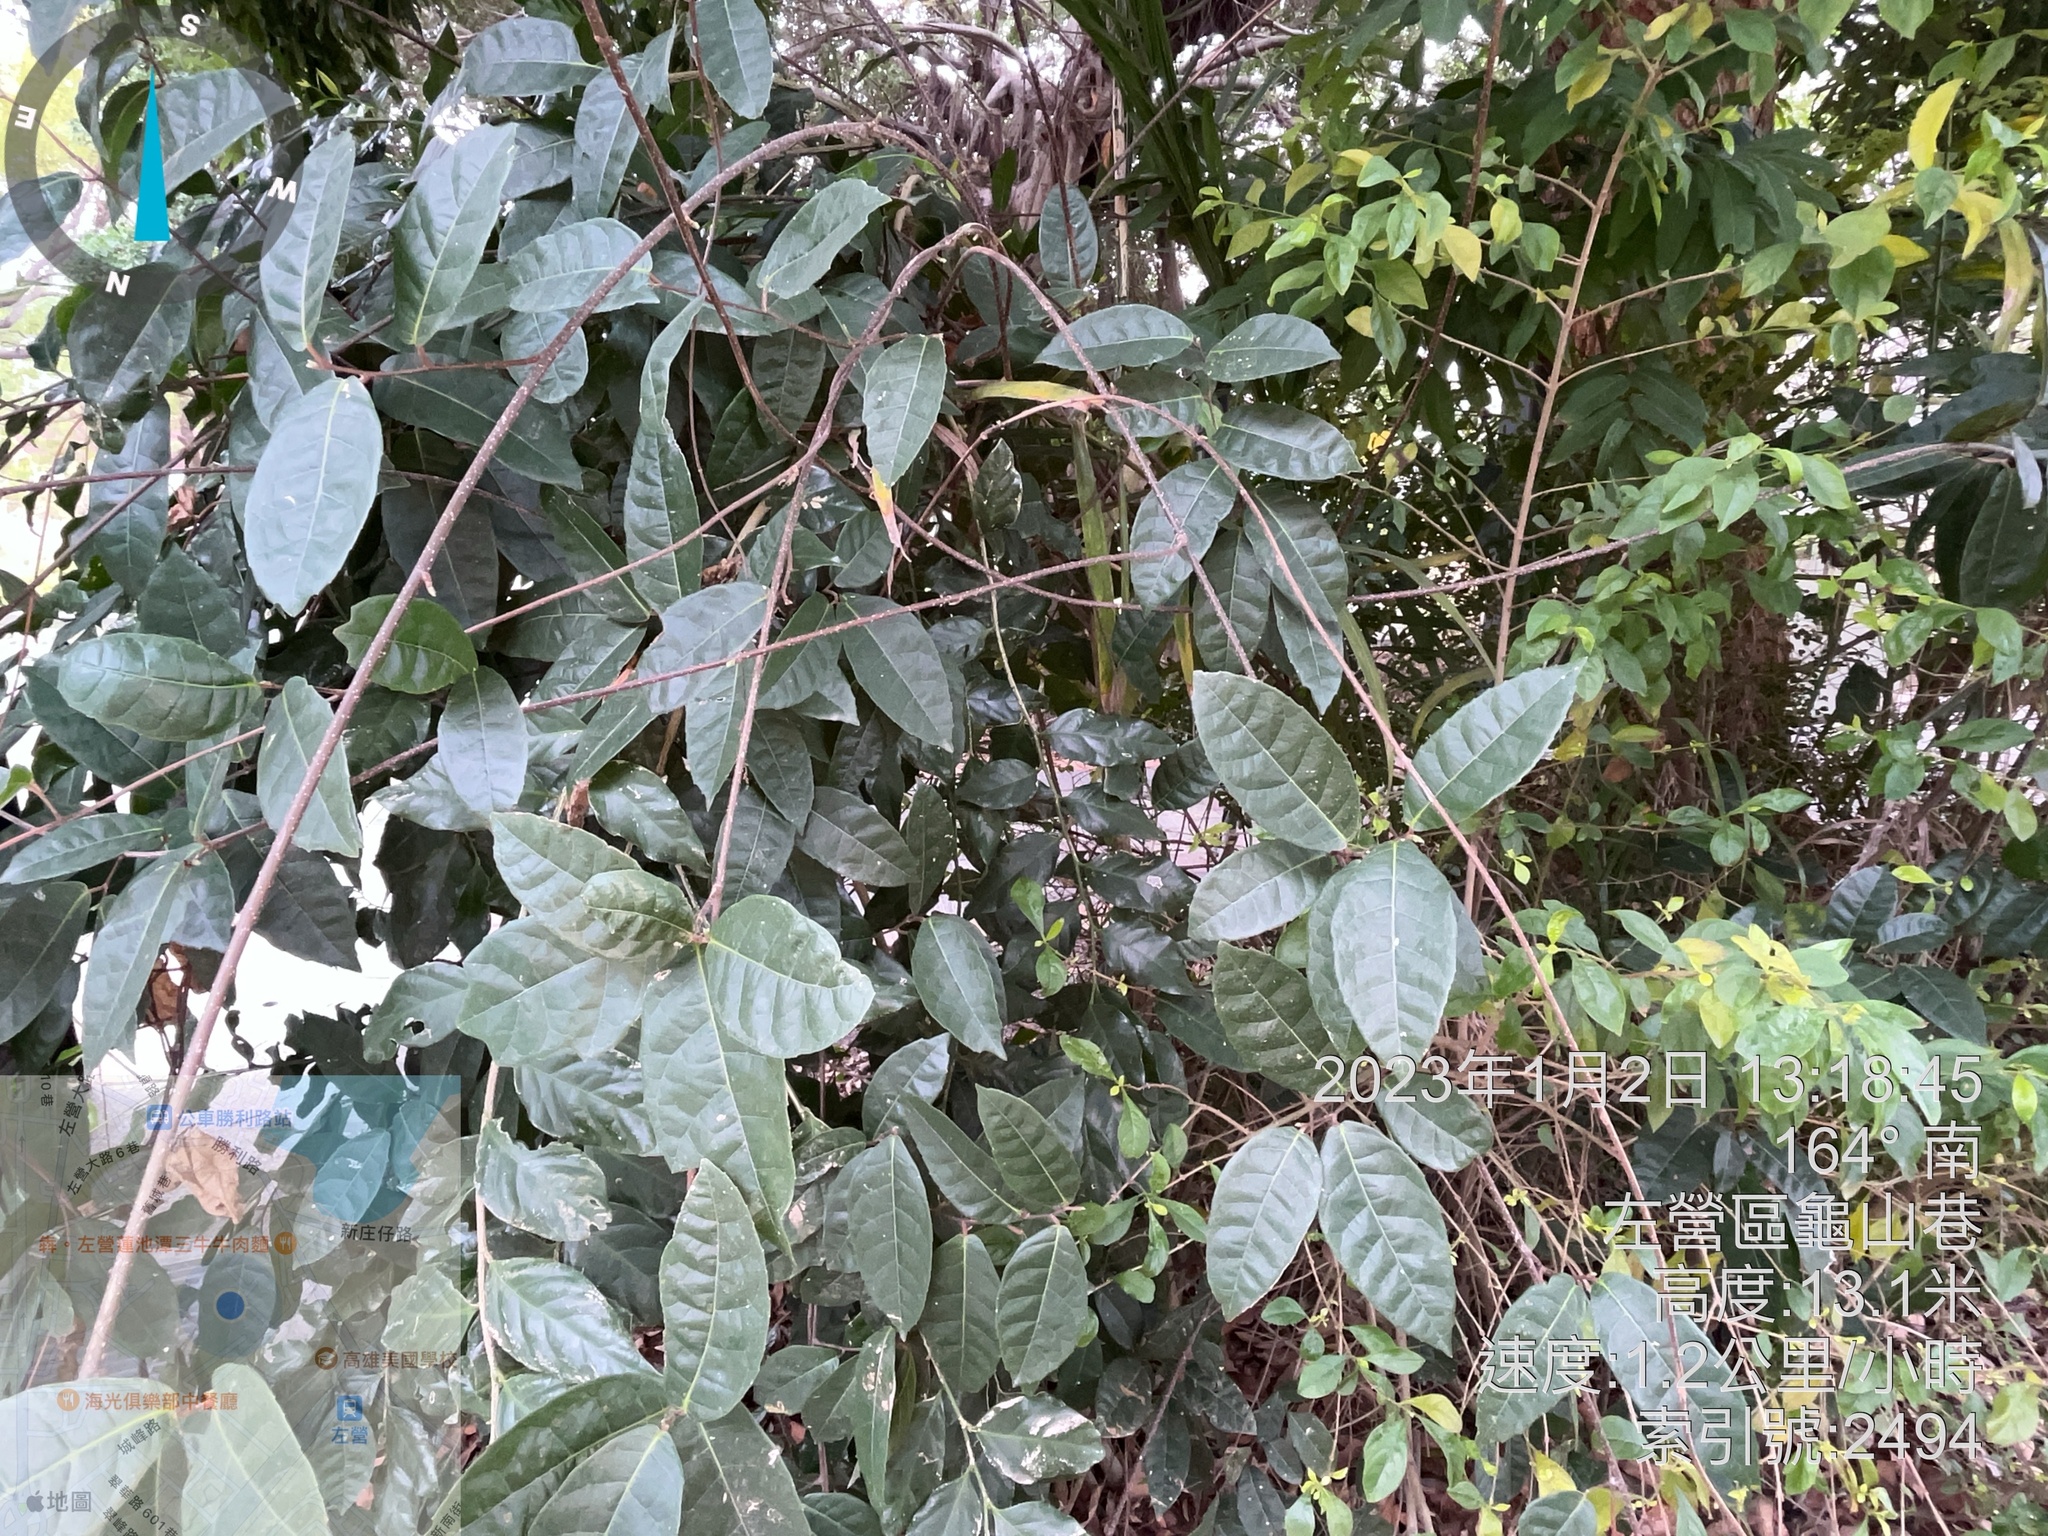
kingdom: Plantae
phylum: Tracheophyta
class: Magnoliopsida
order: Rosales
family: Moraceae
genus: Malaisia
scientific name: Malaisia scandens
